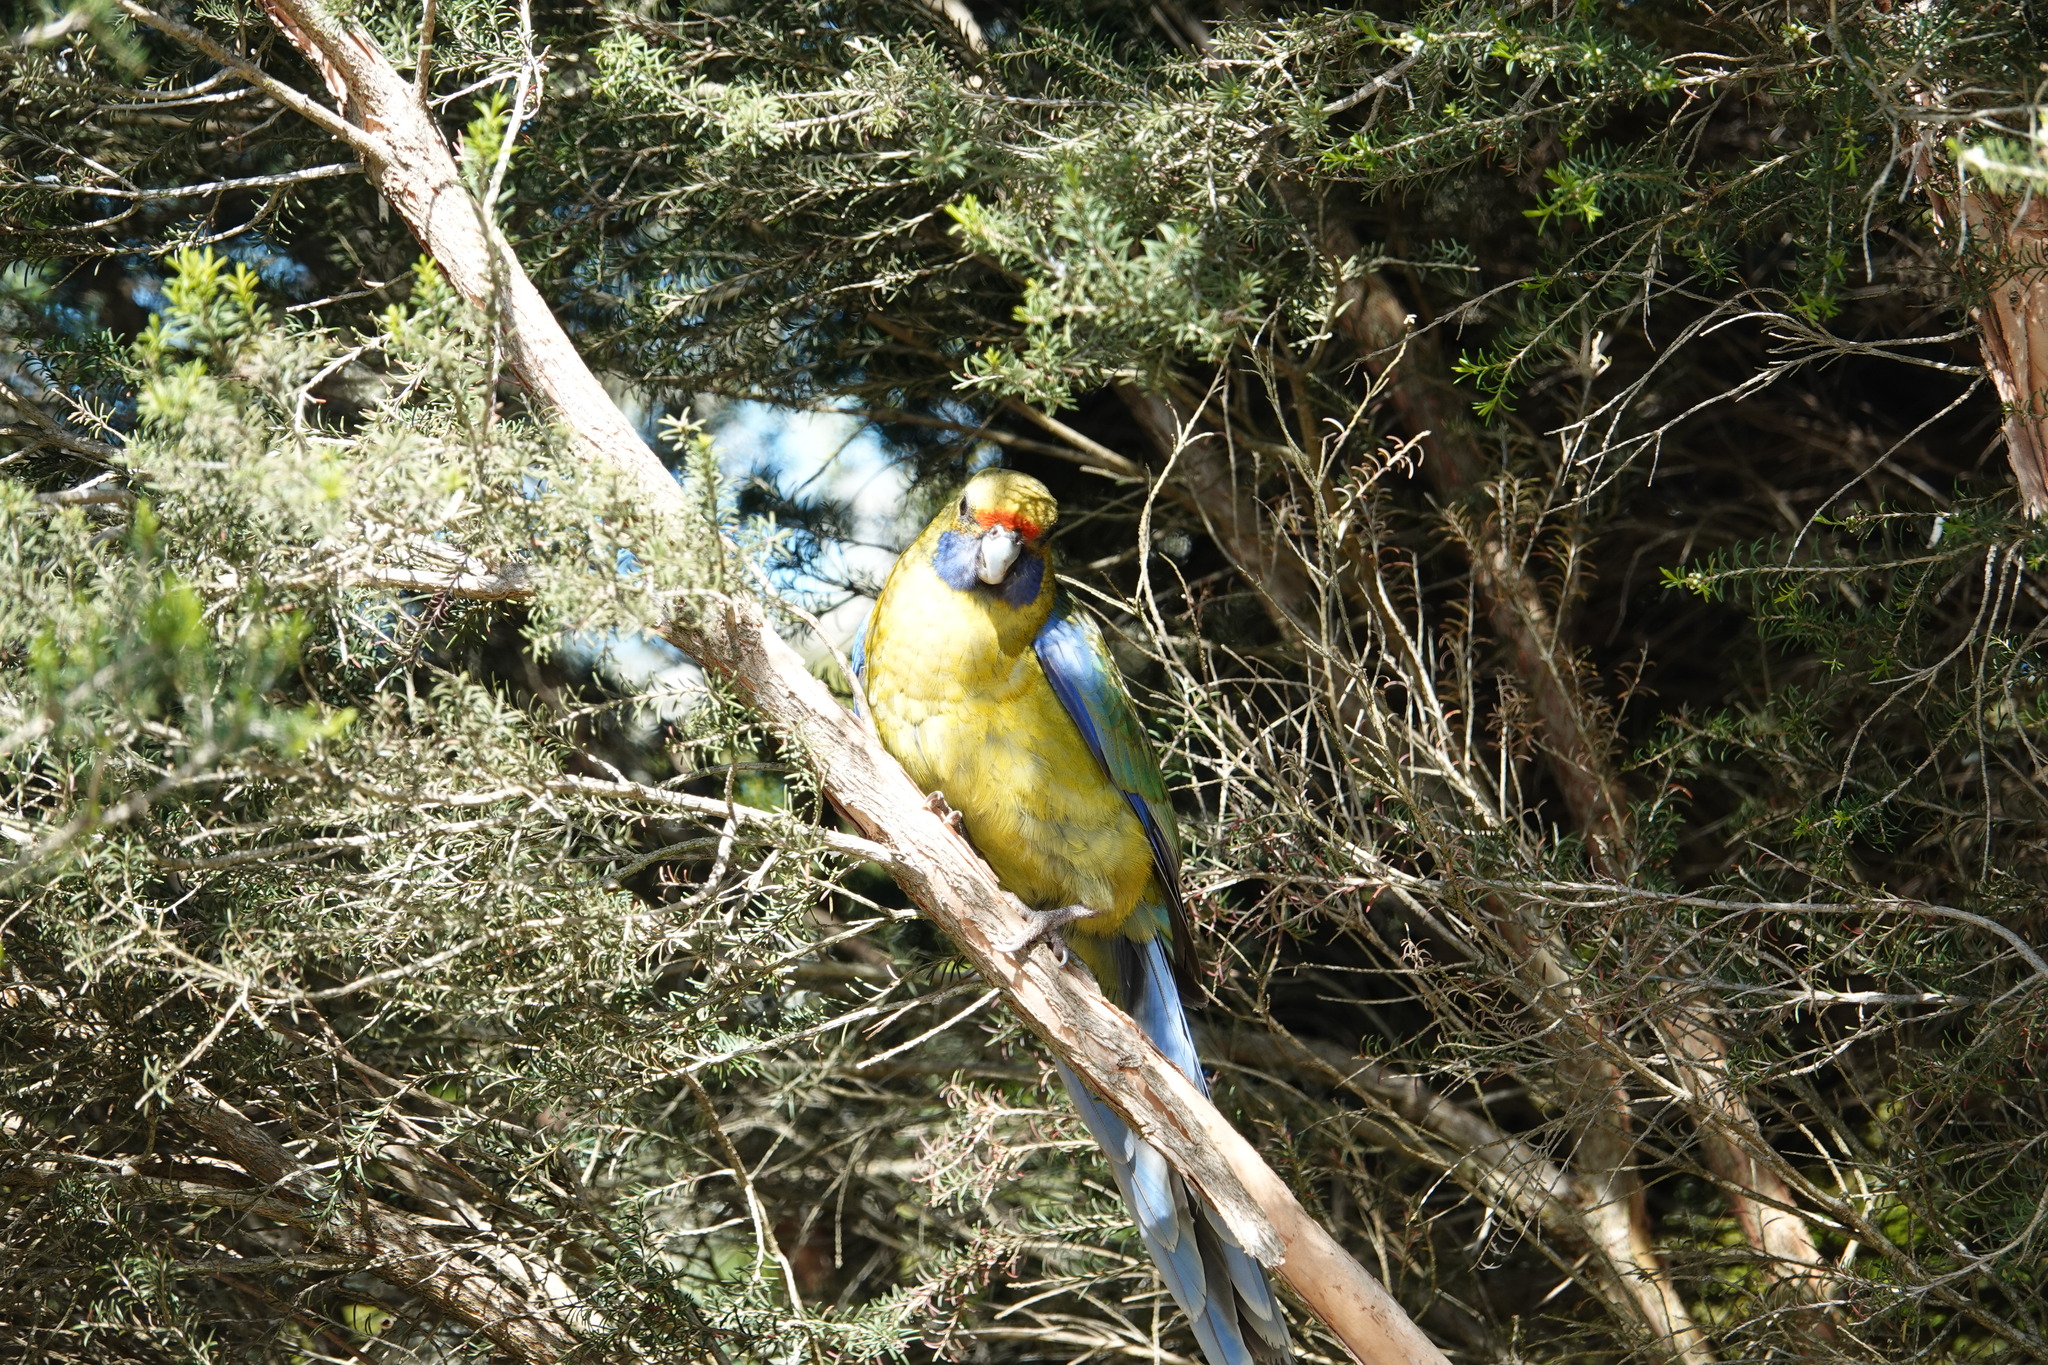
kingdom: Animalia
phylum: Chordata
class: Aves
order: Psittaciformes
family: Psittacidae
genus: Platycercus
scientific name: Platycercus caledonicus
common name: Green rosella
